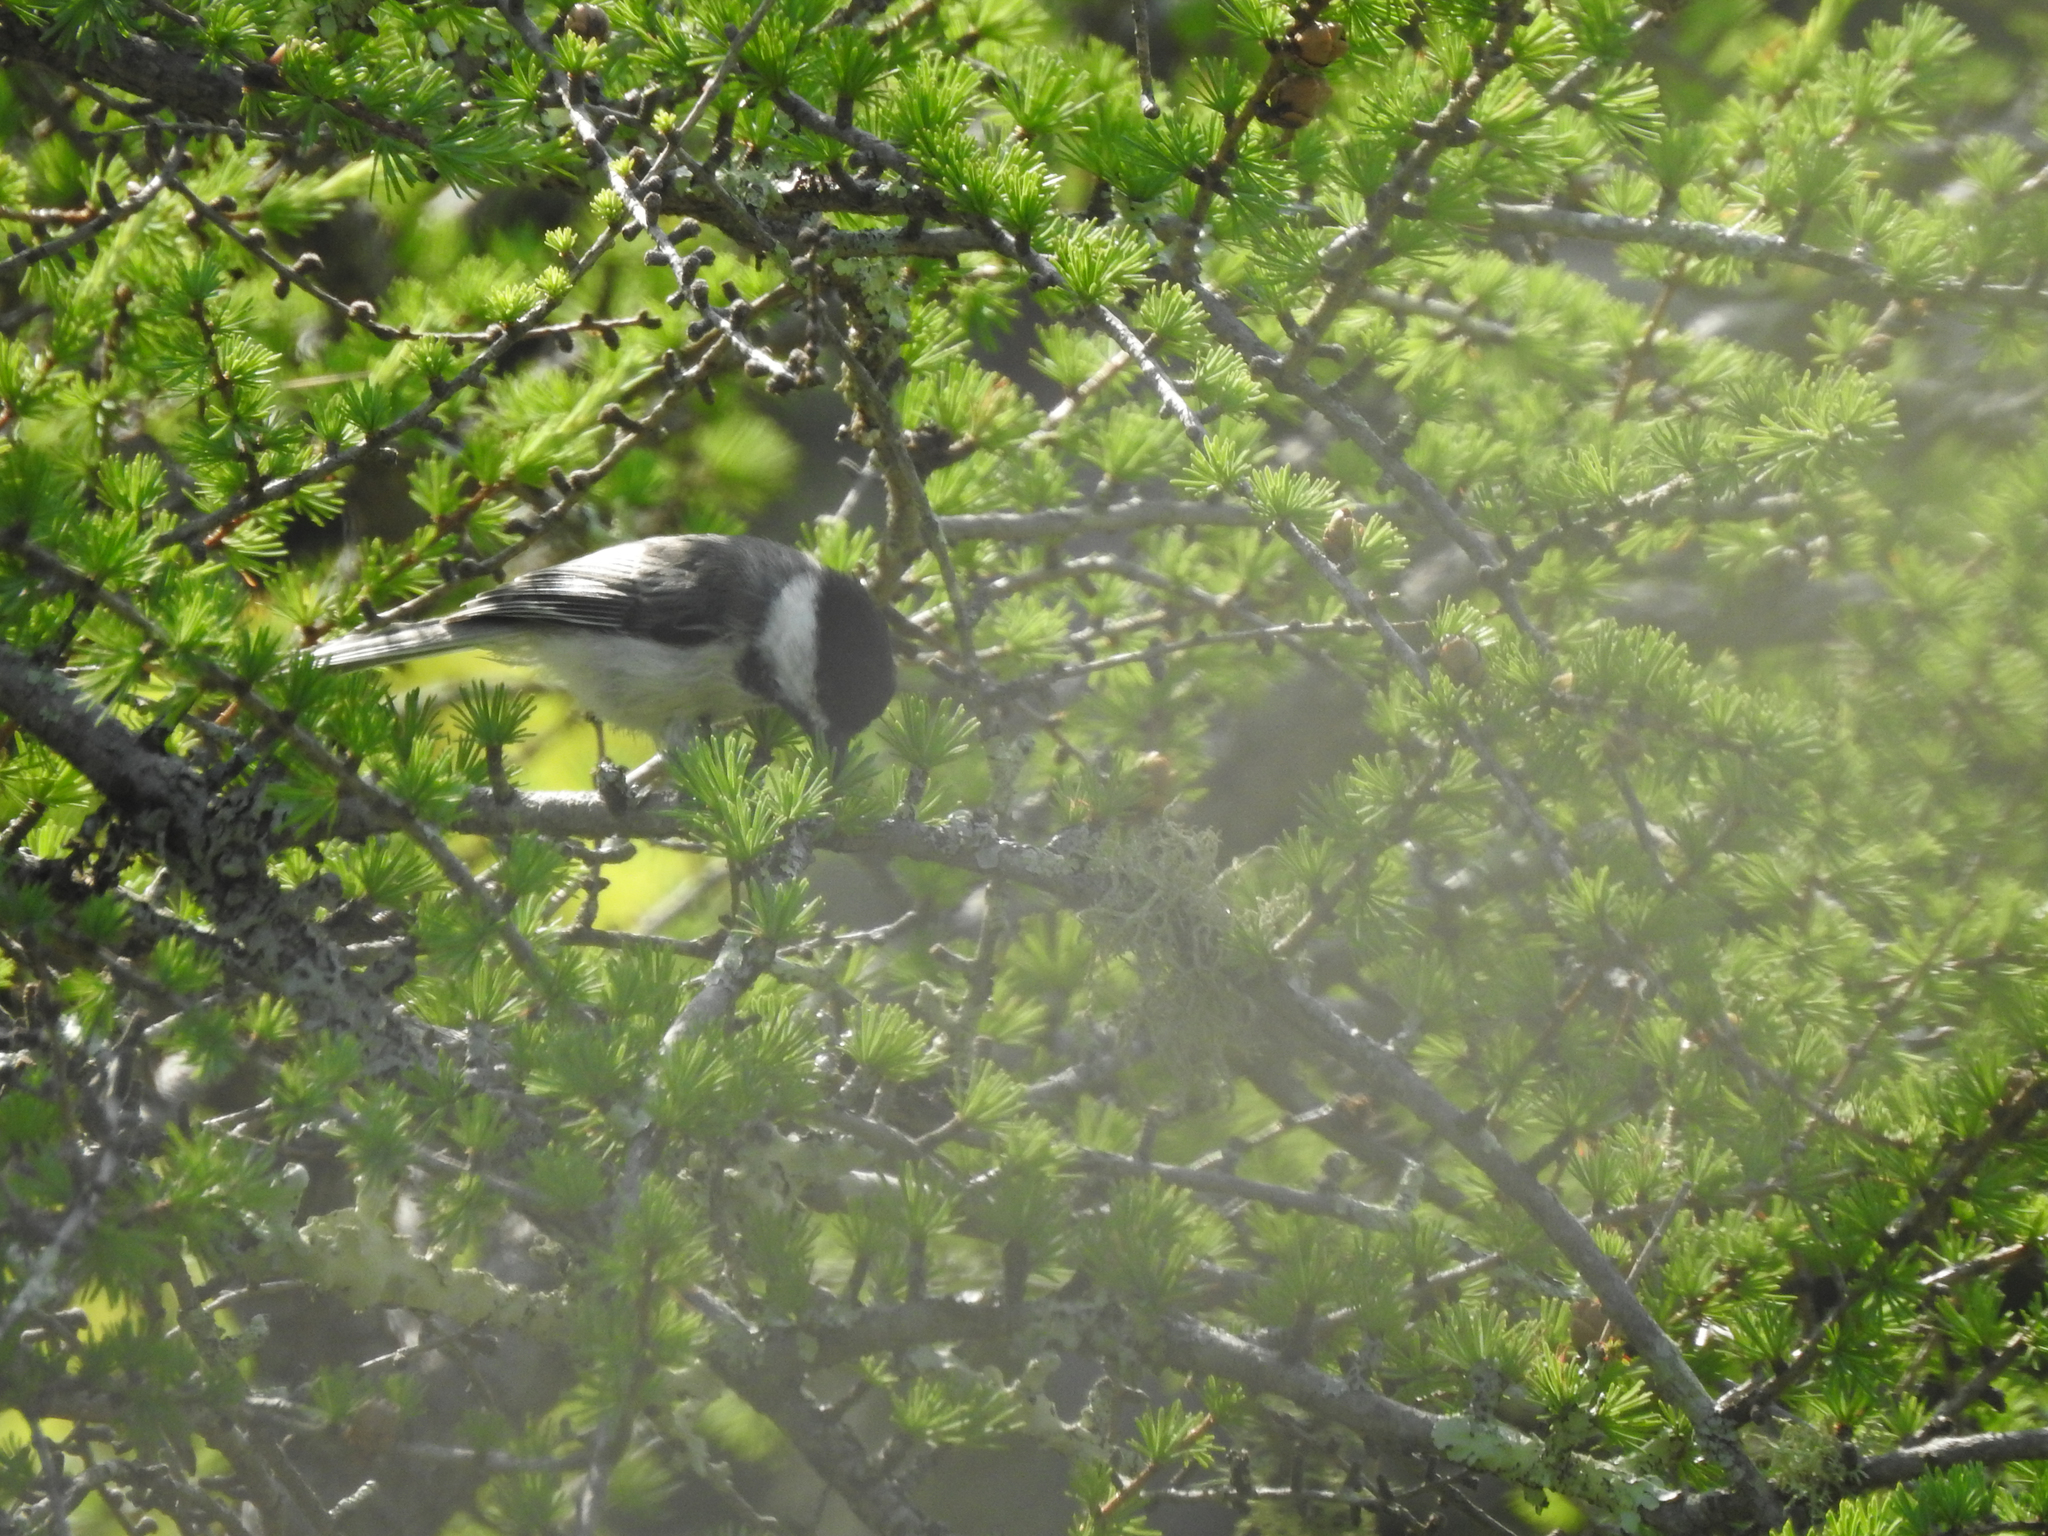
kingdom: Animalia
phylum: Chordata
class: Aves
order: Passeriformes
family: Paridae
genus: Poecile
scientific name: Poecile atricapillus
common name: Black-capped chickadee
